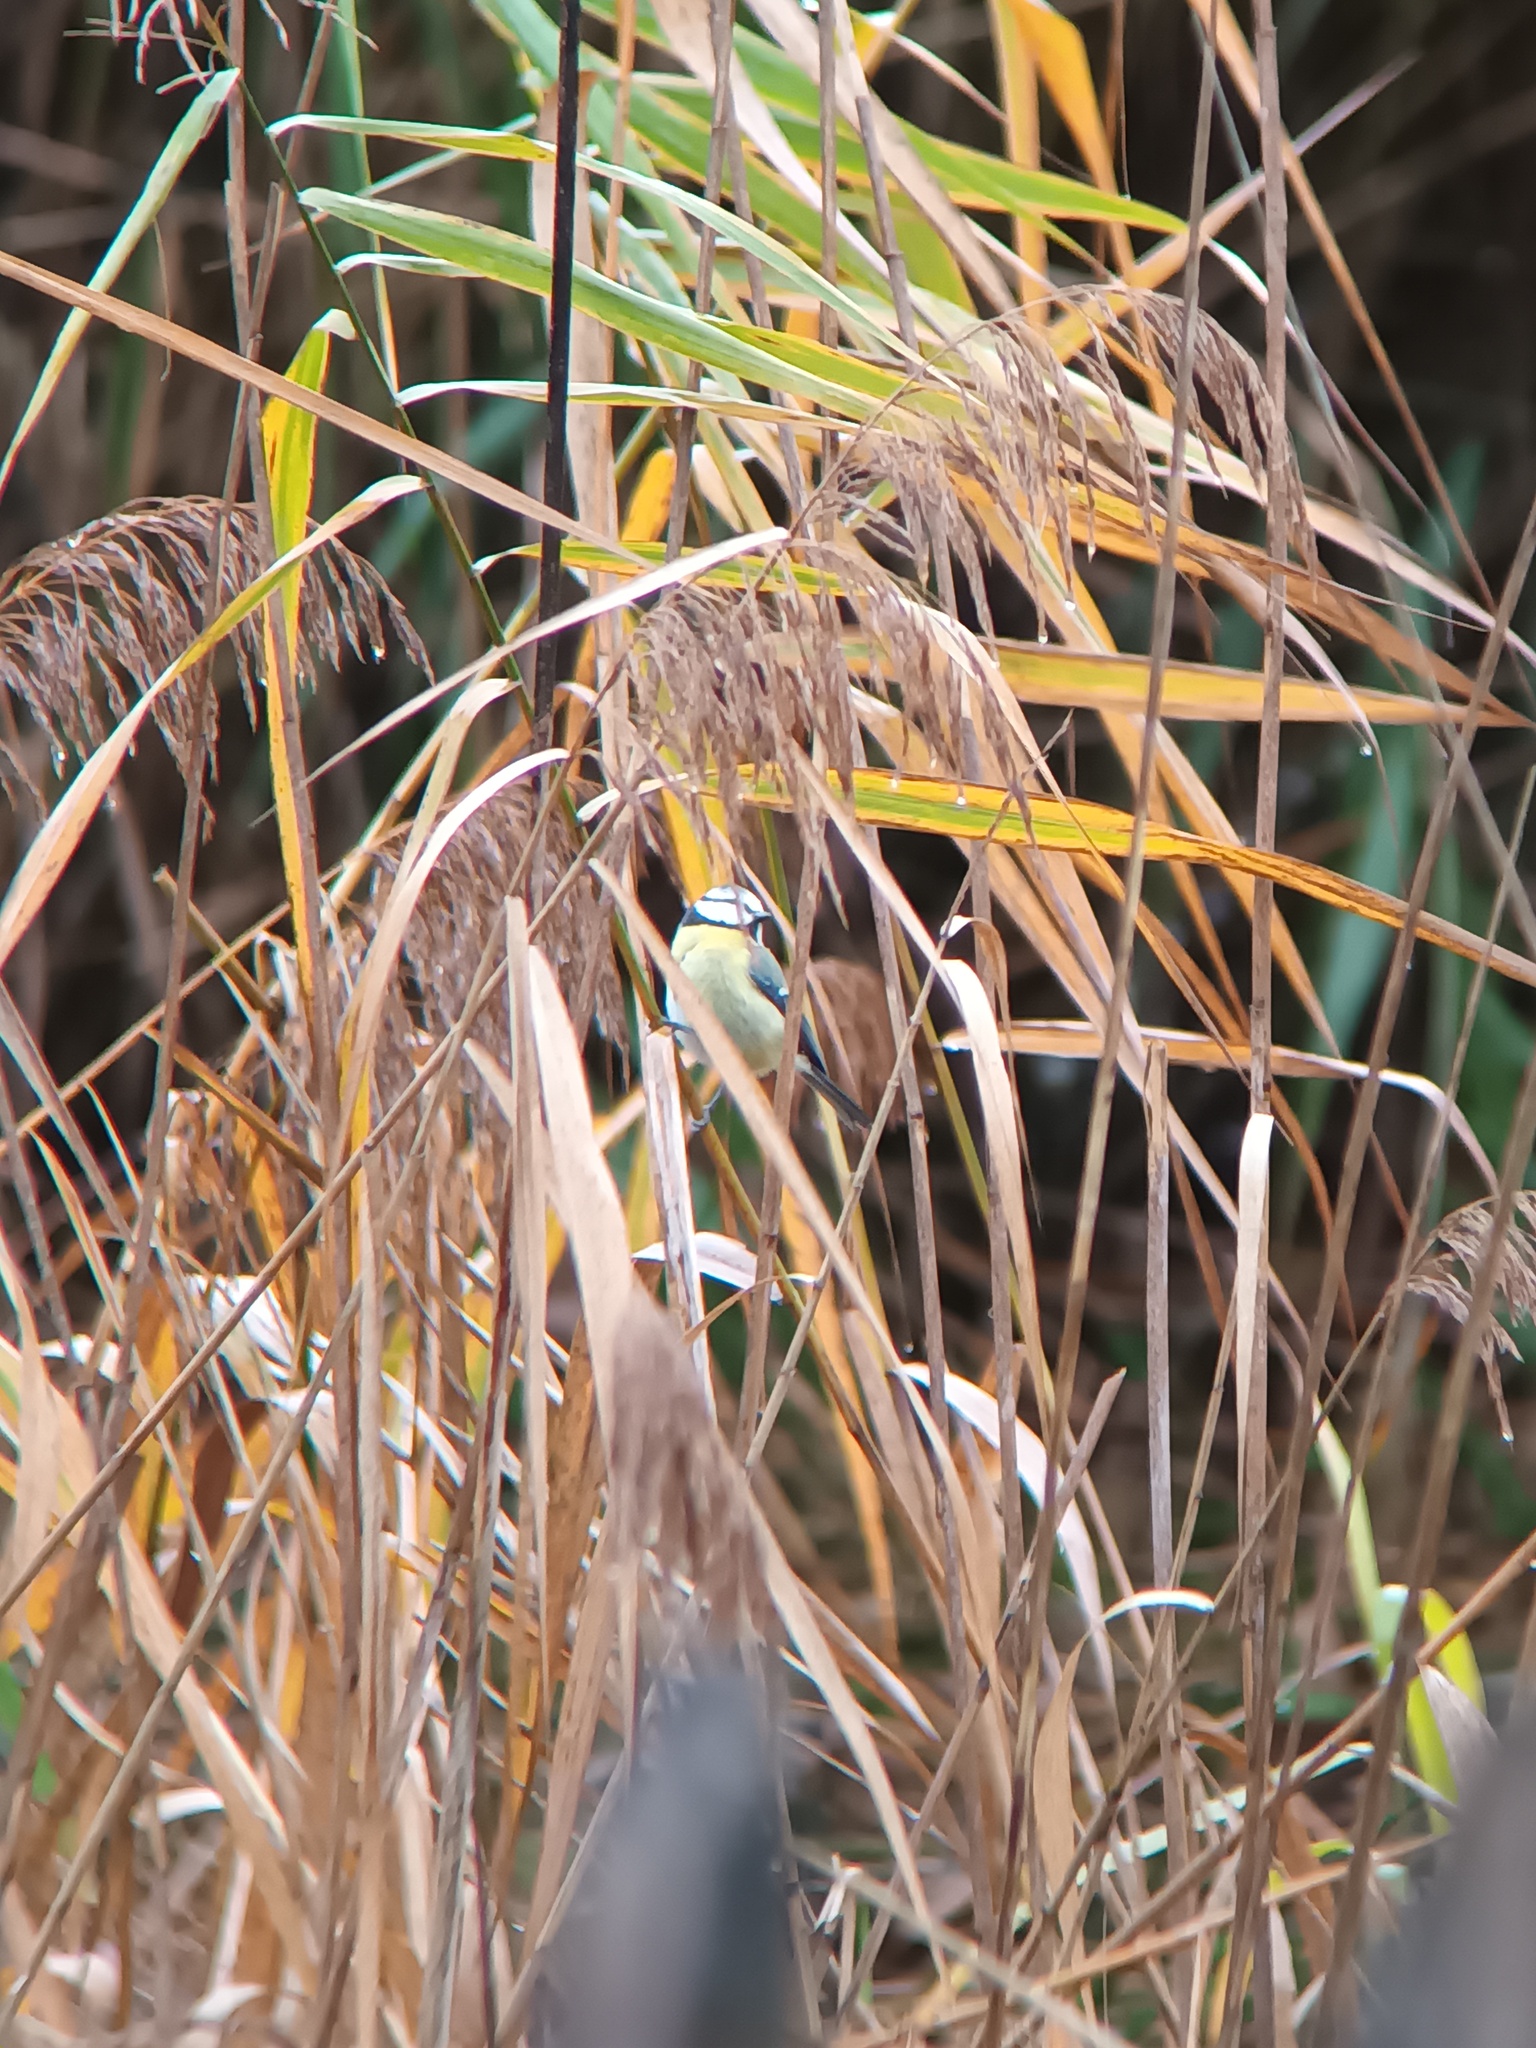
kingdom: Animalia
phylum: Chordata
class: Aves
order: Passeriformes
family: Paridae
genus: Cyanistes
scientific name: Cyanistes caeruleus
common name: Eurasian blue tit
